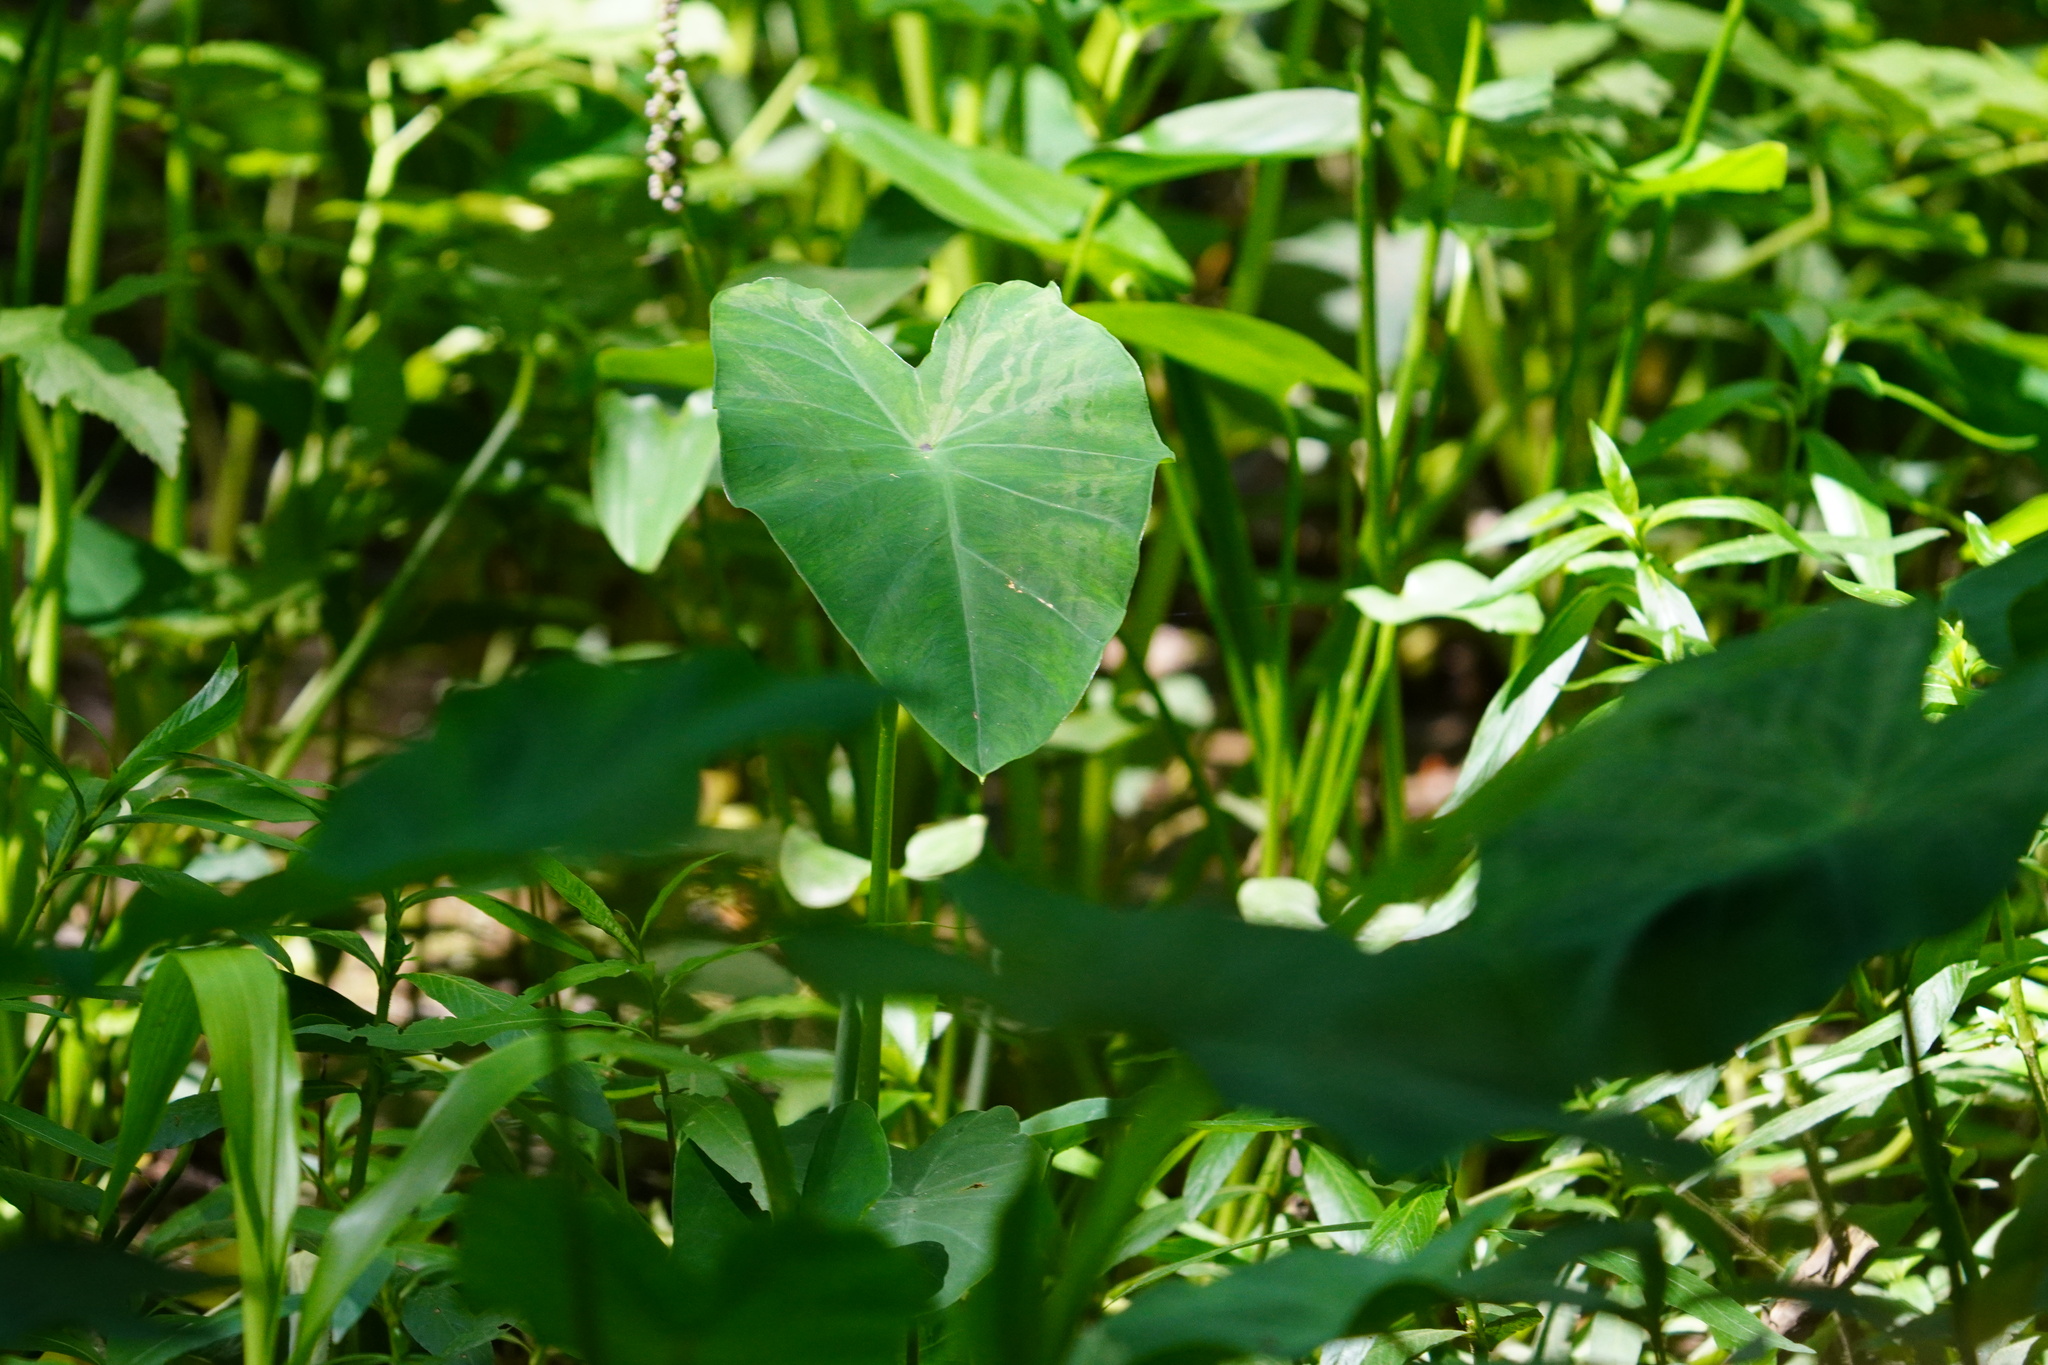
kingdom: Plantae
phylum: Tracheophyta
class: Liliopsida
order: Alismatales
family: Araceae
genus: Colocasia
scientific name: Colocasia esculenta
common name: Taro
